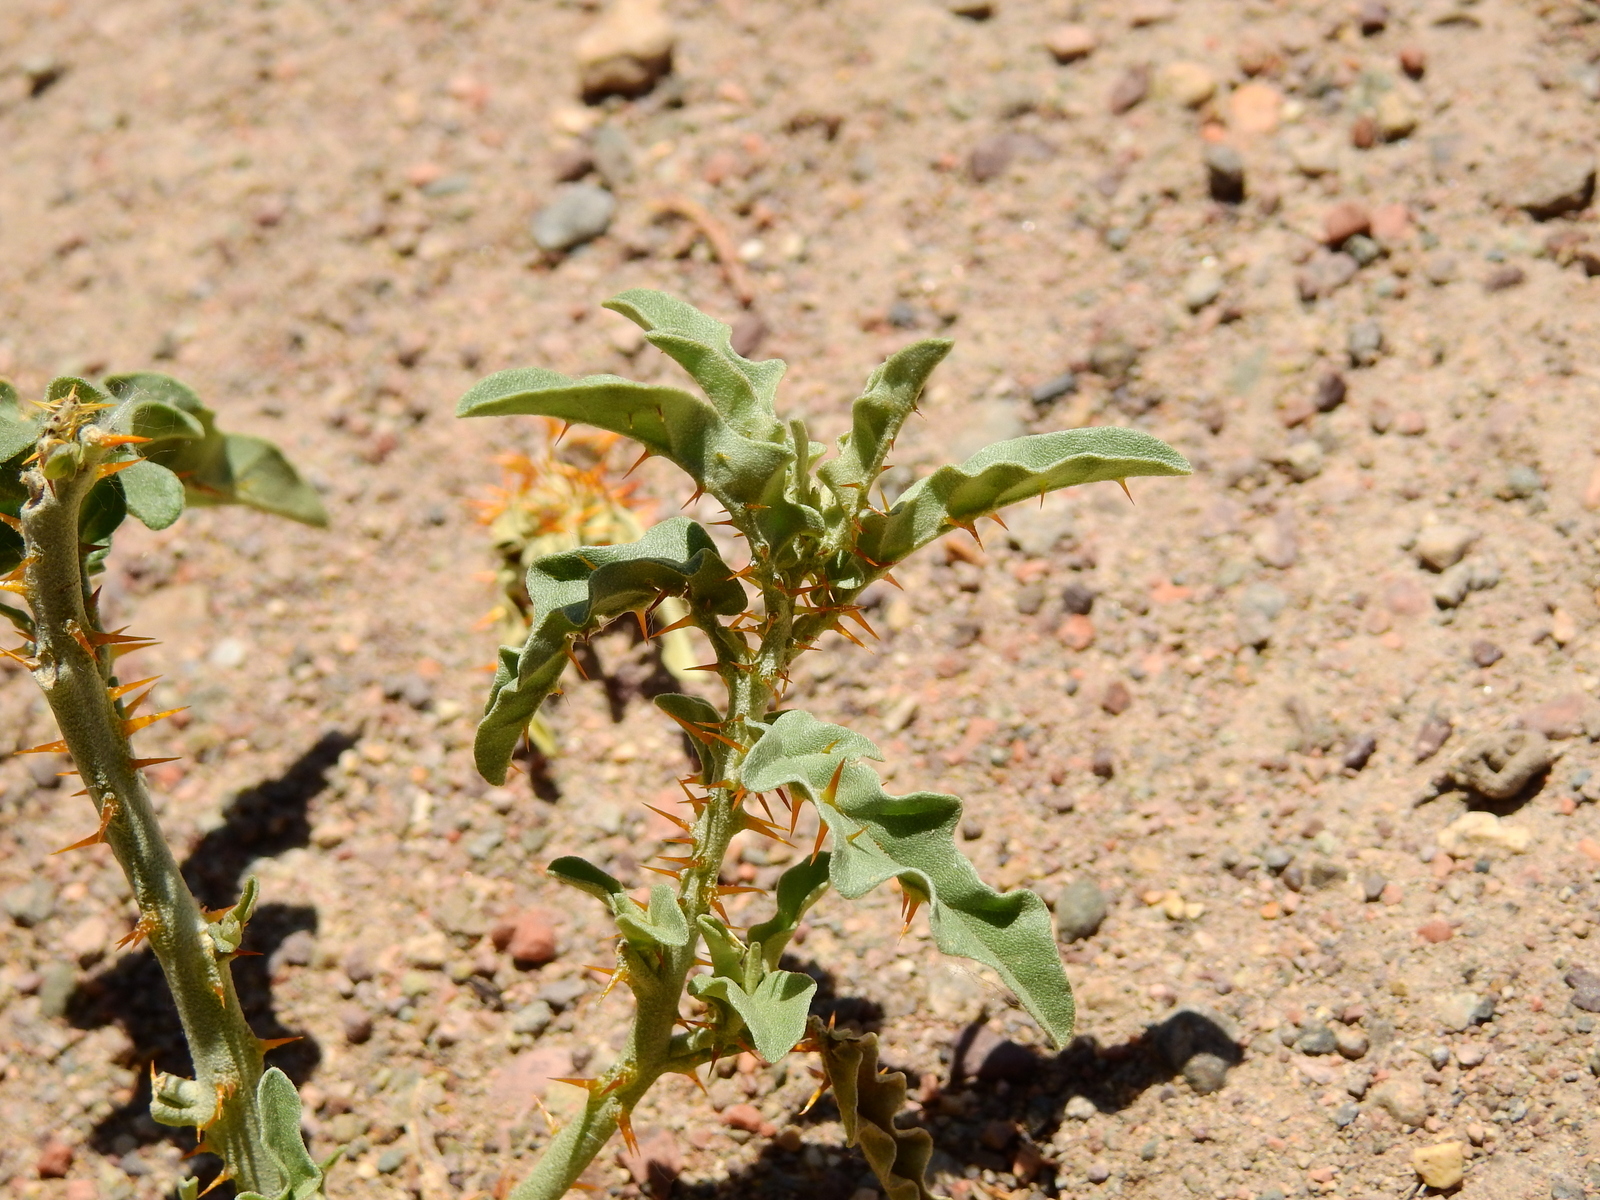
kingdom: Plantae
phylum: Tracheophyta
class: Magnoliopsida
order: Solanales
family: Solanaceae
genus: Solanum
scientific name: Solanum elaeagnifolium
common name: Silverleaf nightshade
